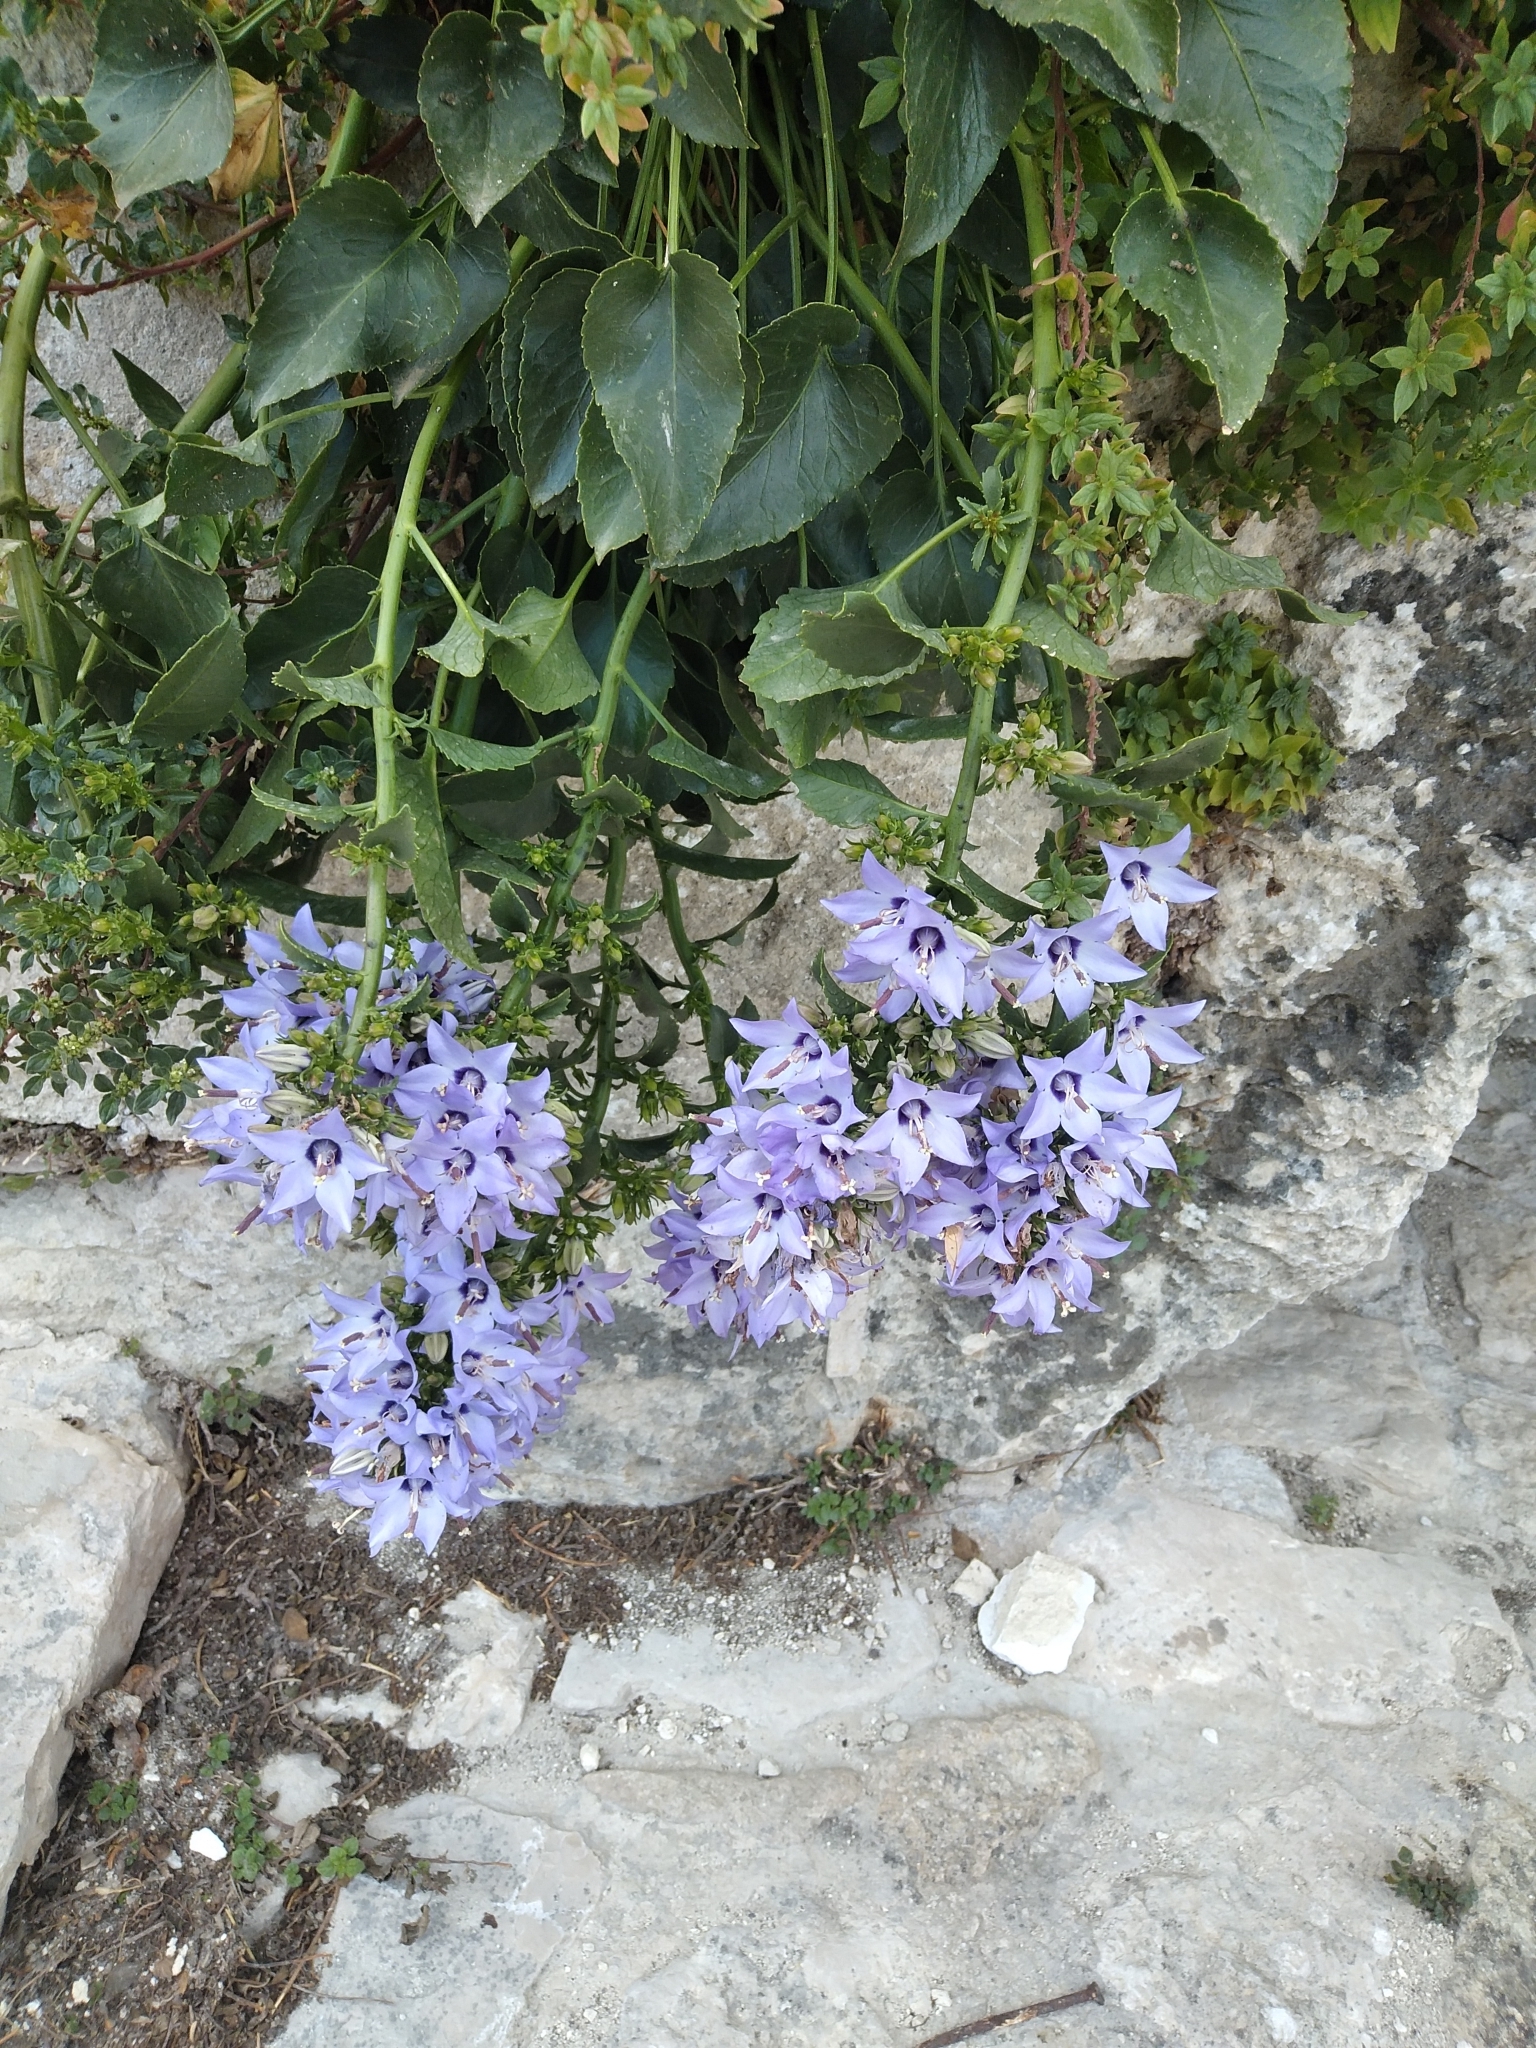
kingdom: Plantae
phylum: Tracheophyta
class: Magnoliopsida
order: Asterales
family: Campanulaceae
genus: Campanula
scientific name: Campanula versicolor
